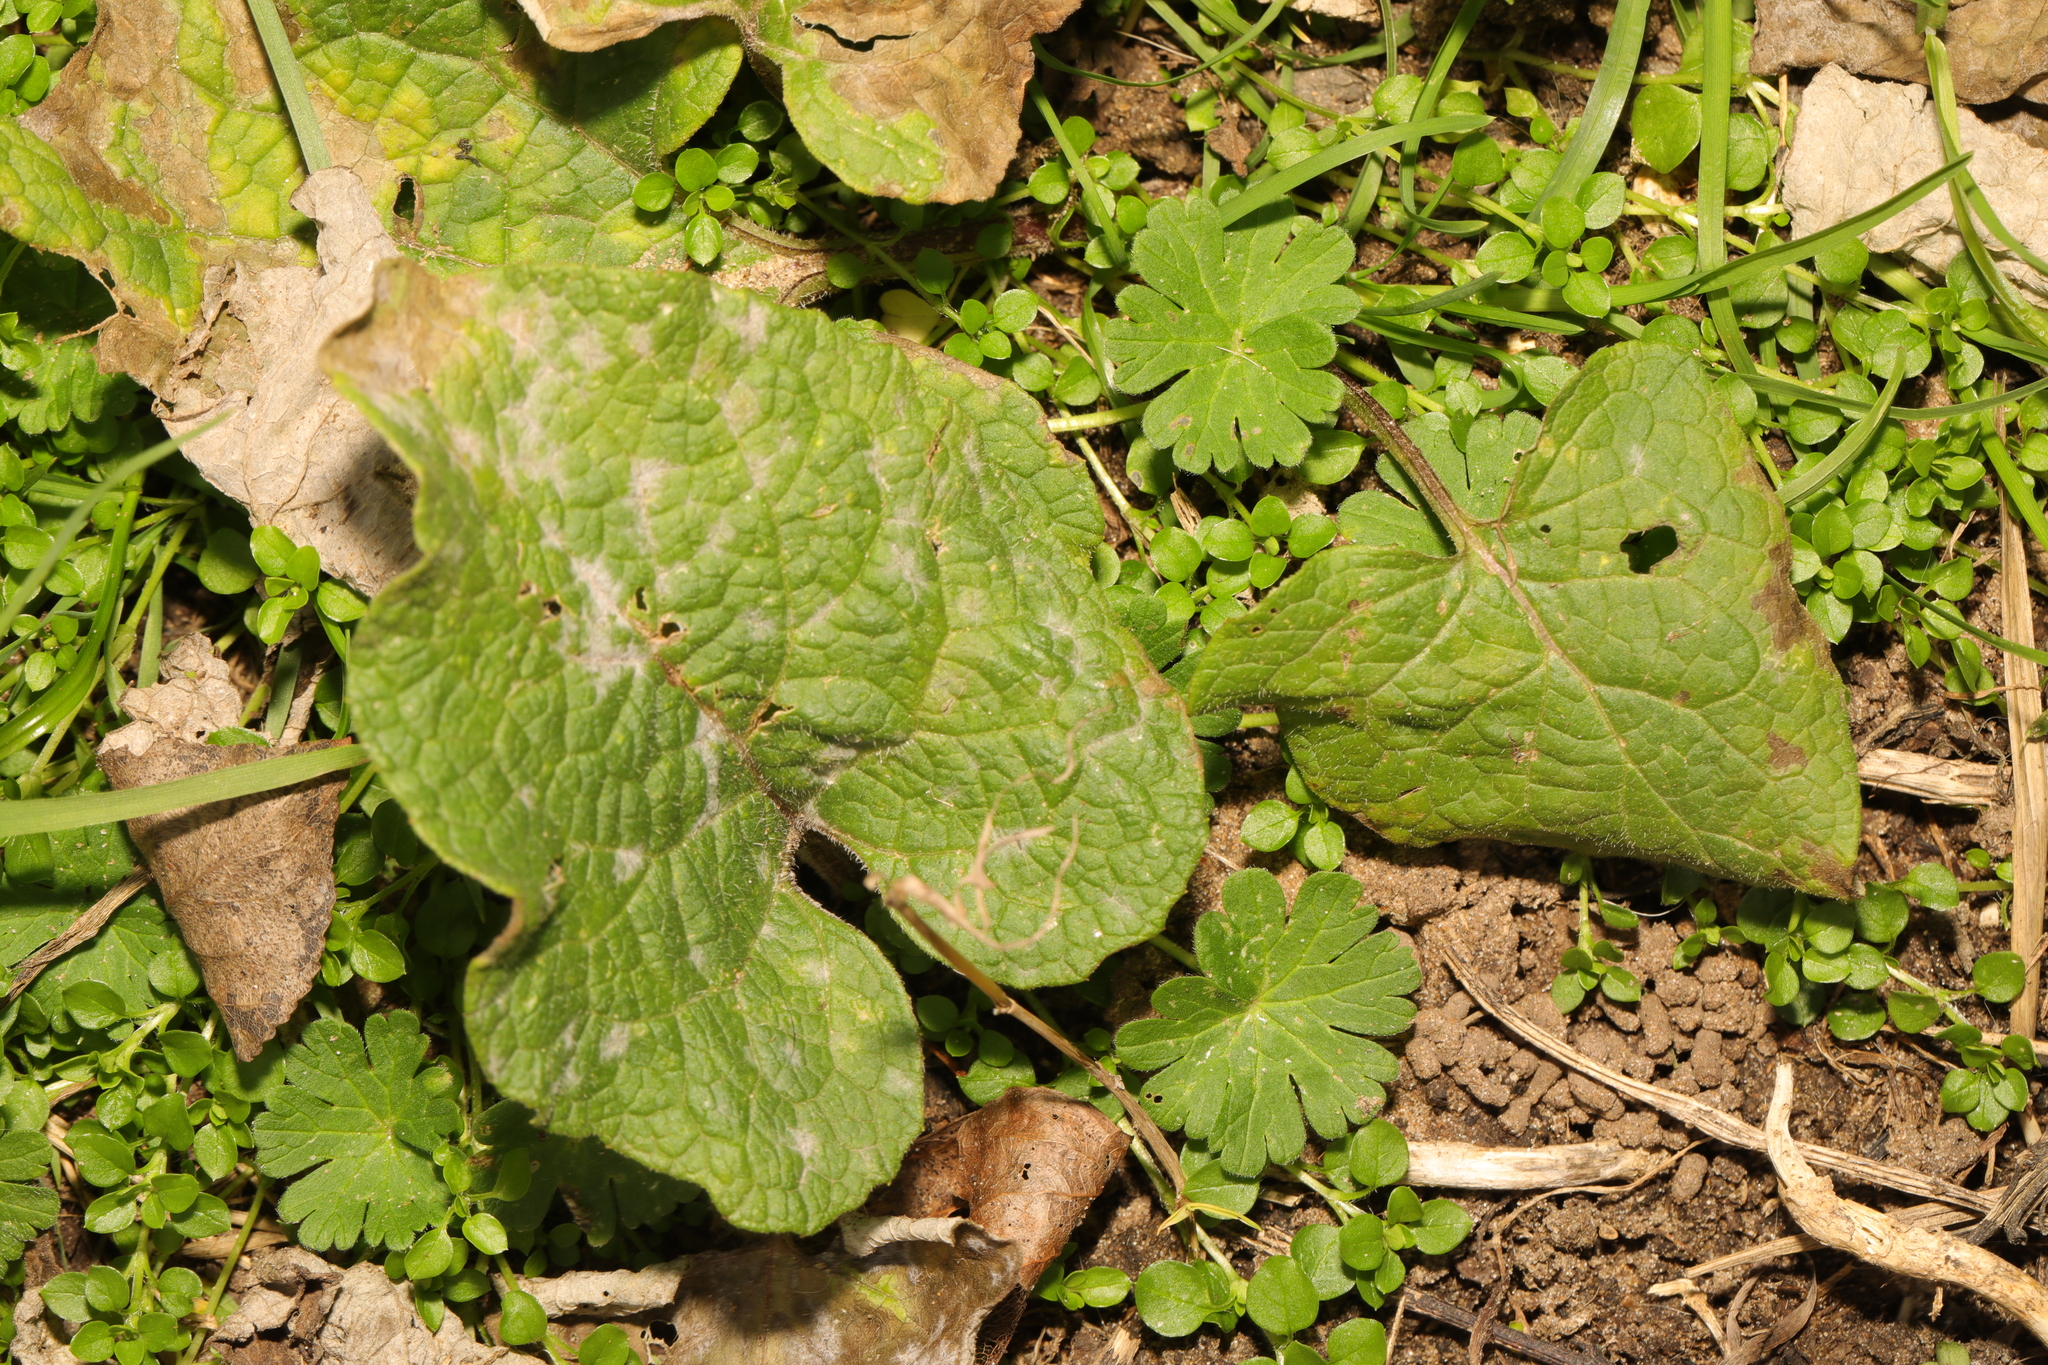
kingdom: Fungi
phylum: Ascomycota
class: Leotiomycetes
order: Helotiales
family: Erysiphaceae
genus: Golovinomyces
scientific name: Golovinomyces depressus
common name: Burdock mildew
